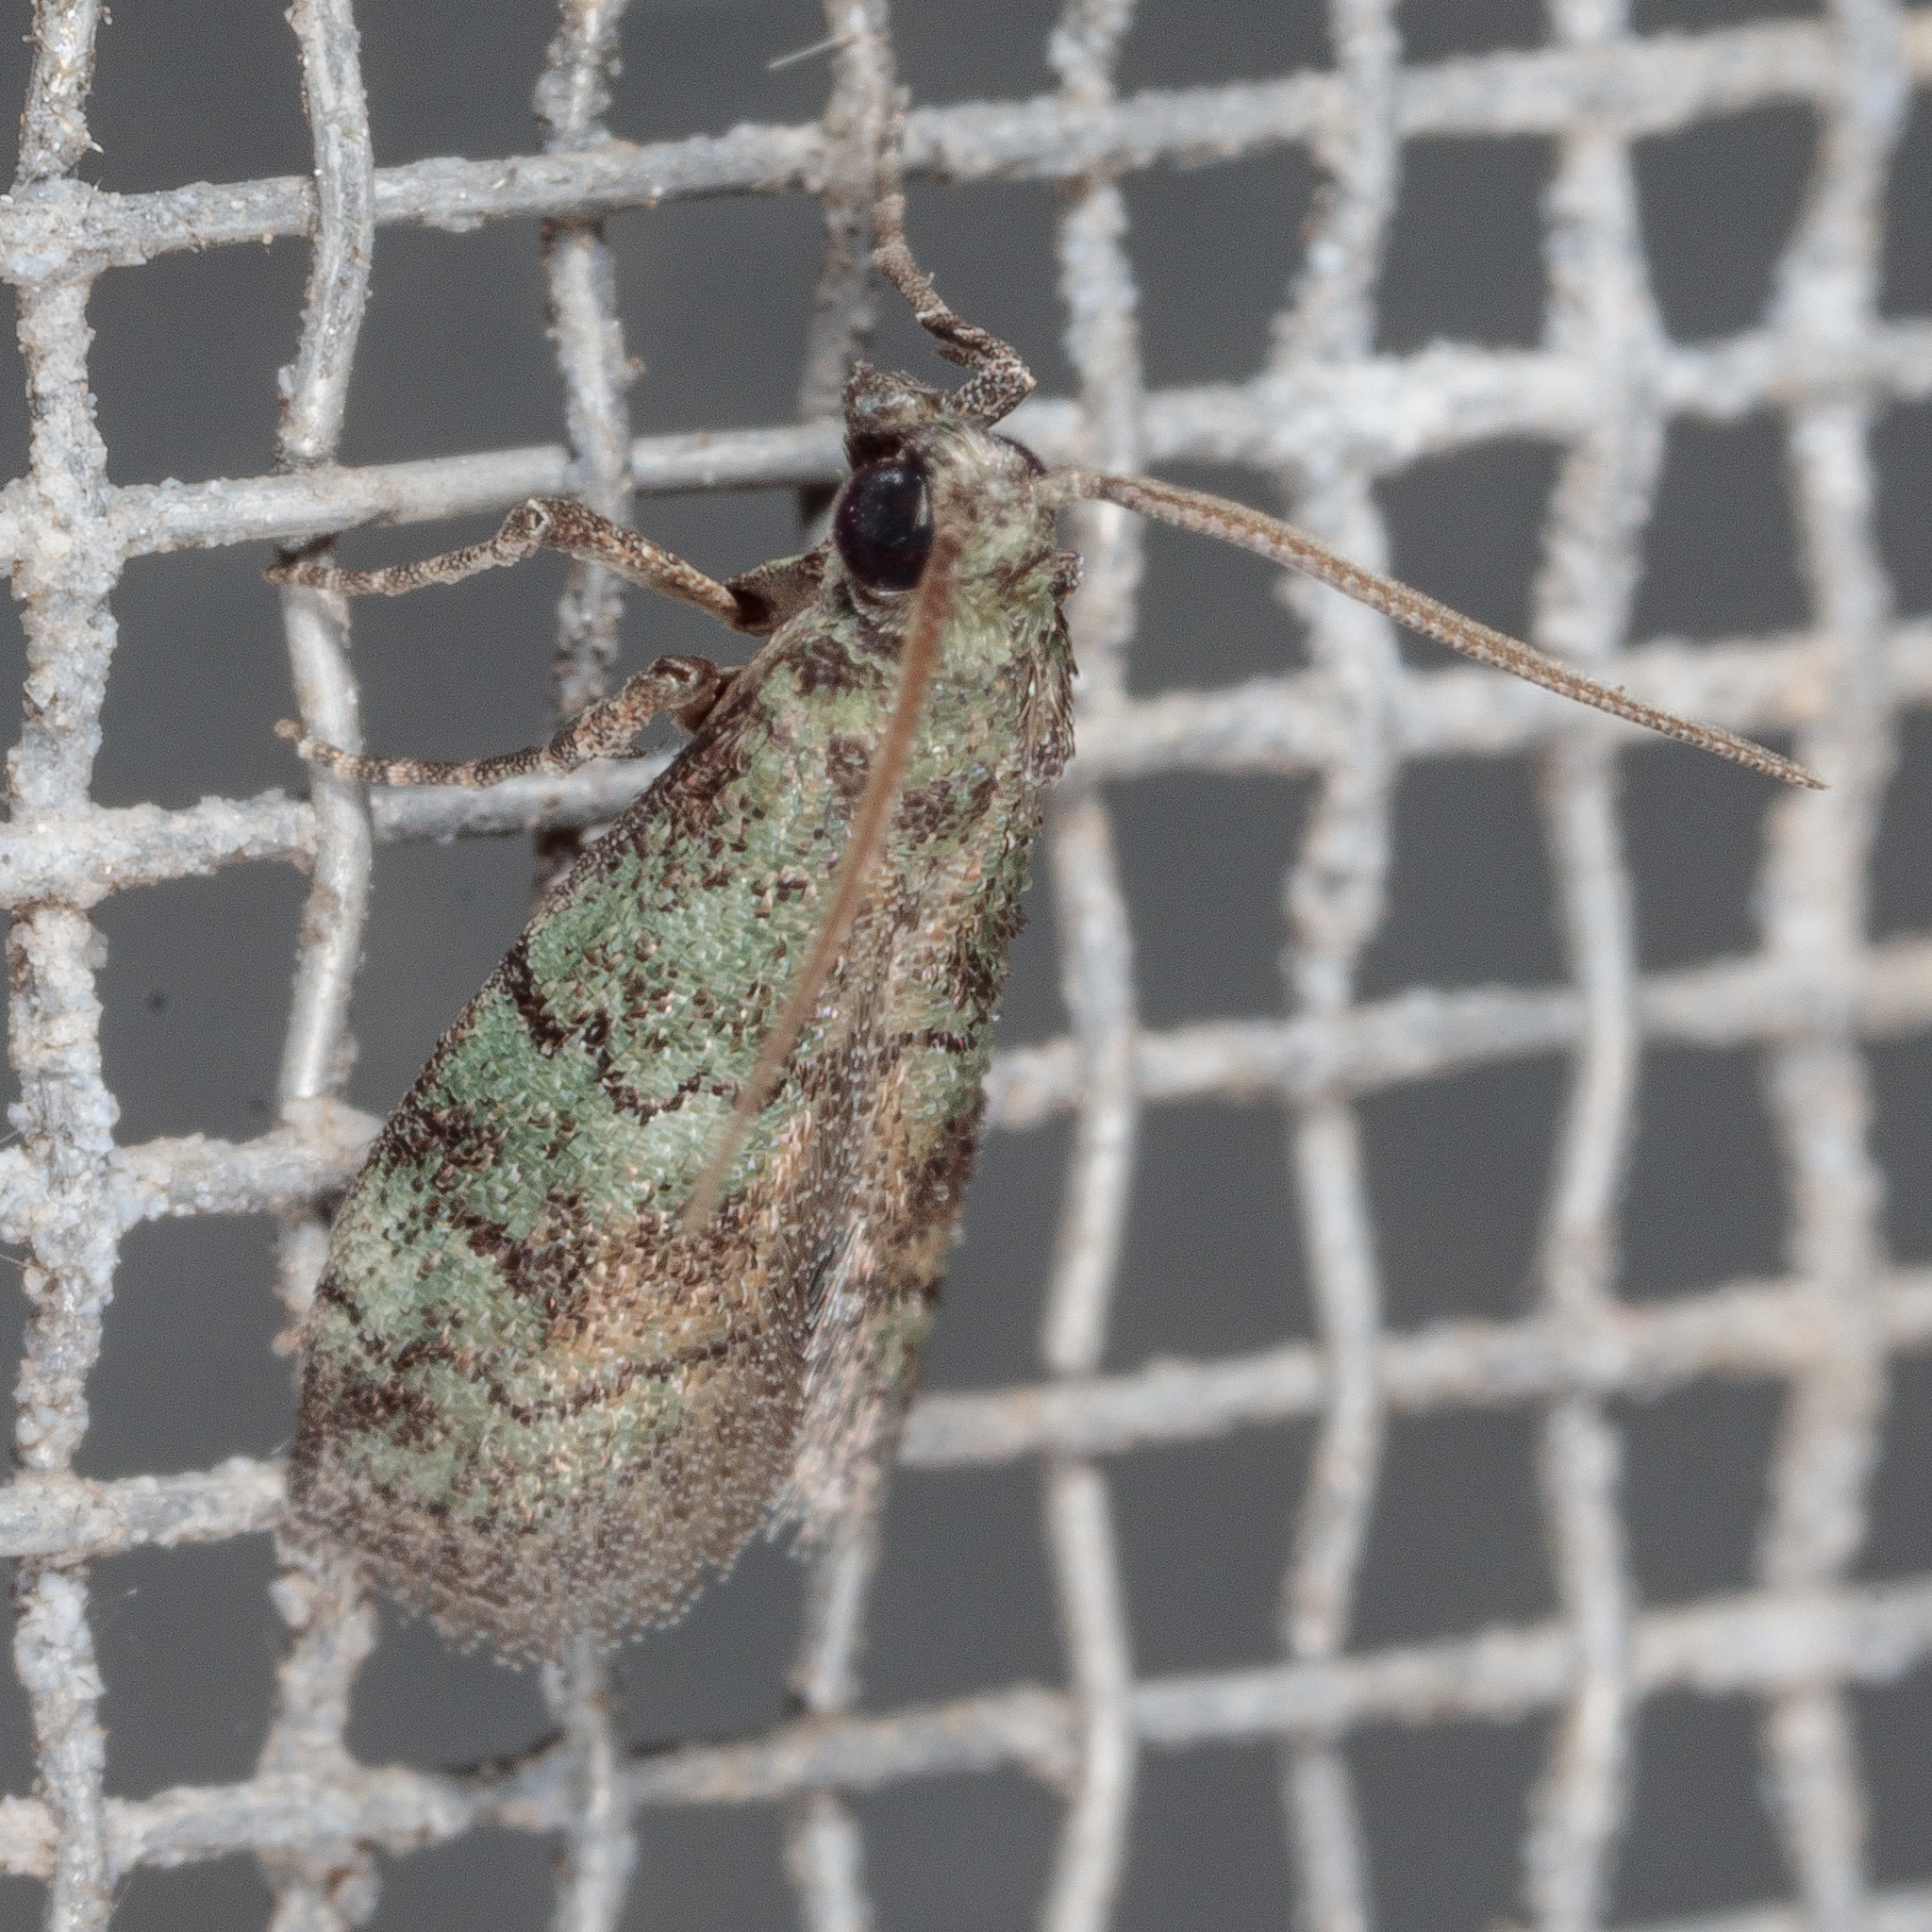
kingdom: Animalia
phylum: Arthropoda
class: Insecta
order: Lepidoptera
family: Pyralidae
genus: Cacotherapia
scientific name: Cacotherapia flexilinealis
